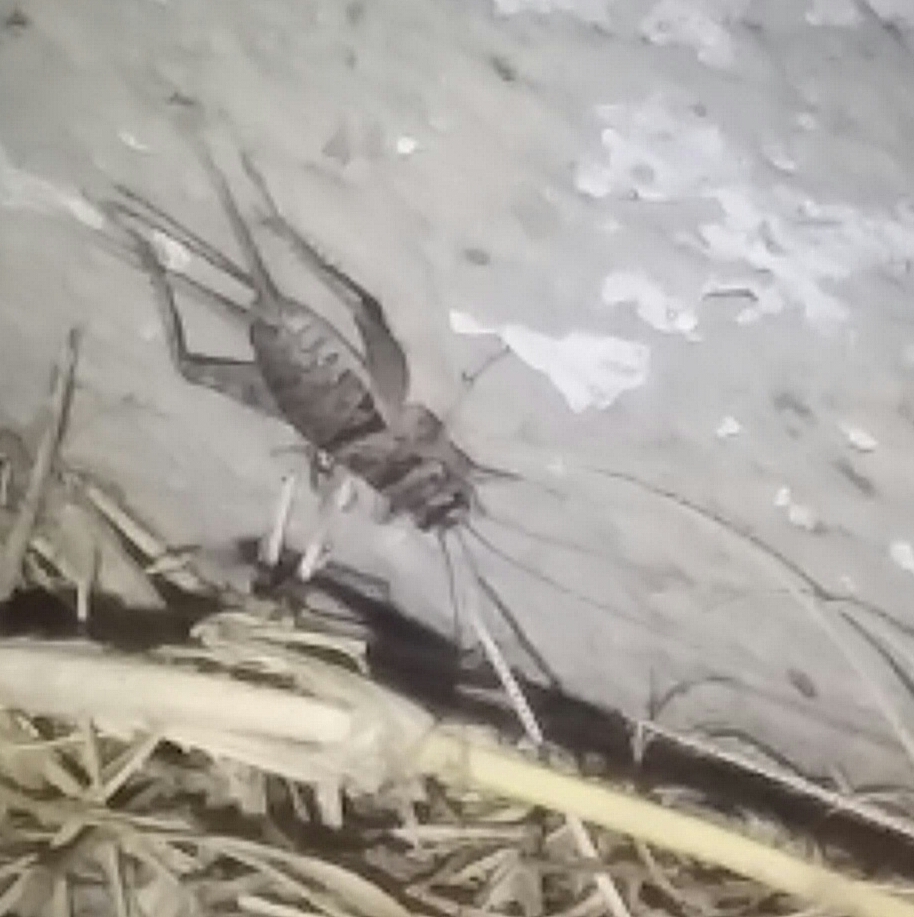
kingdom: Animalia
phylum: Arthropoda
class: Insecta
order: Orthoptera
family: Gryllidae
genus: Gryllodes
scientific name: Gryllodes sigillatus
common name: Tropical house cricket
